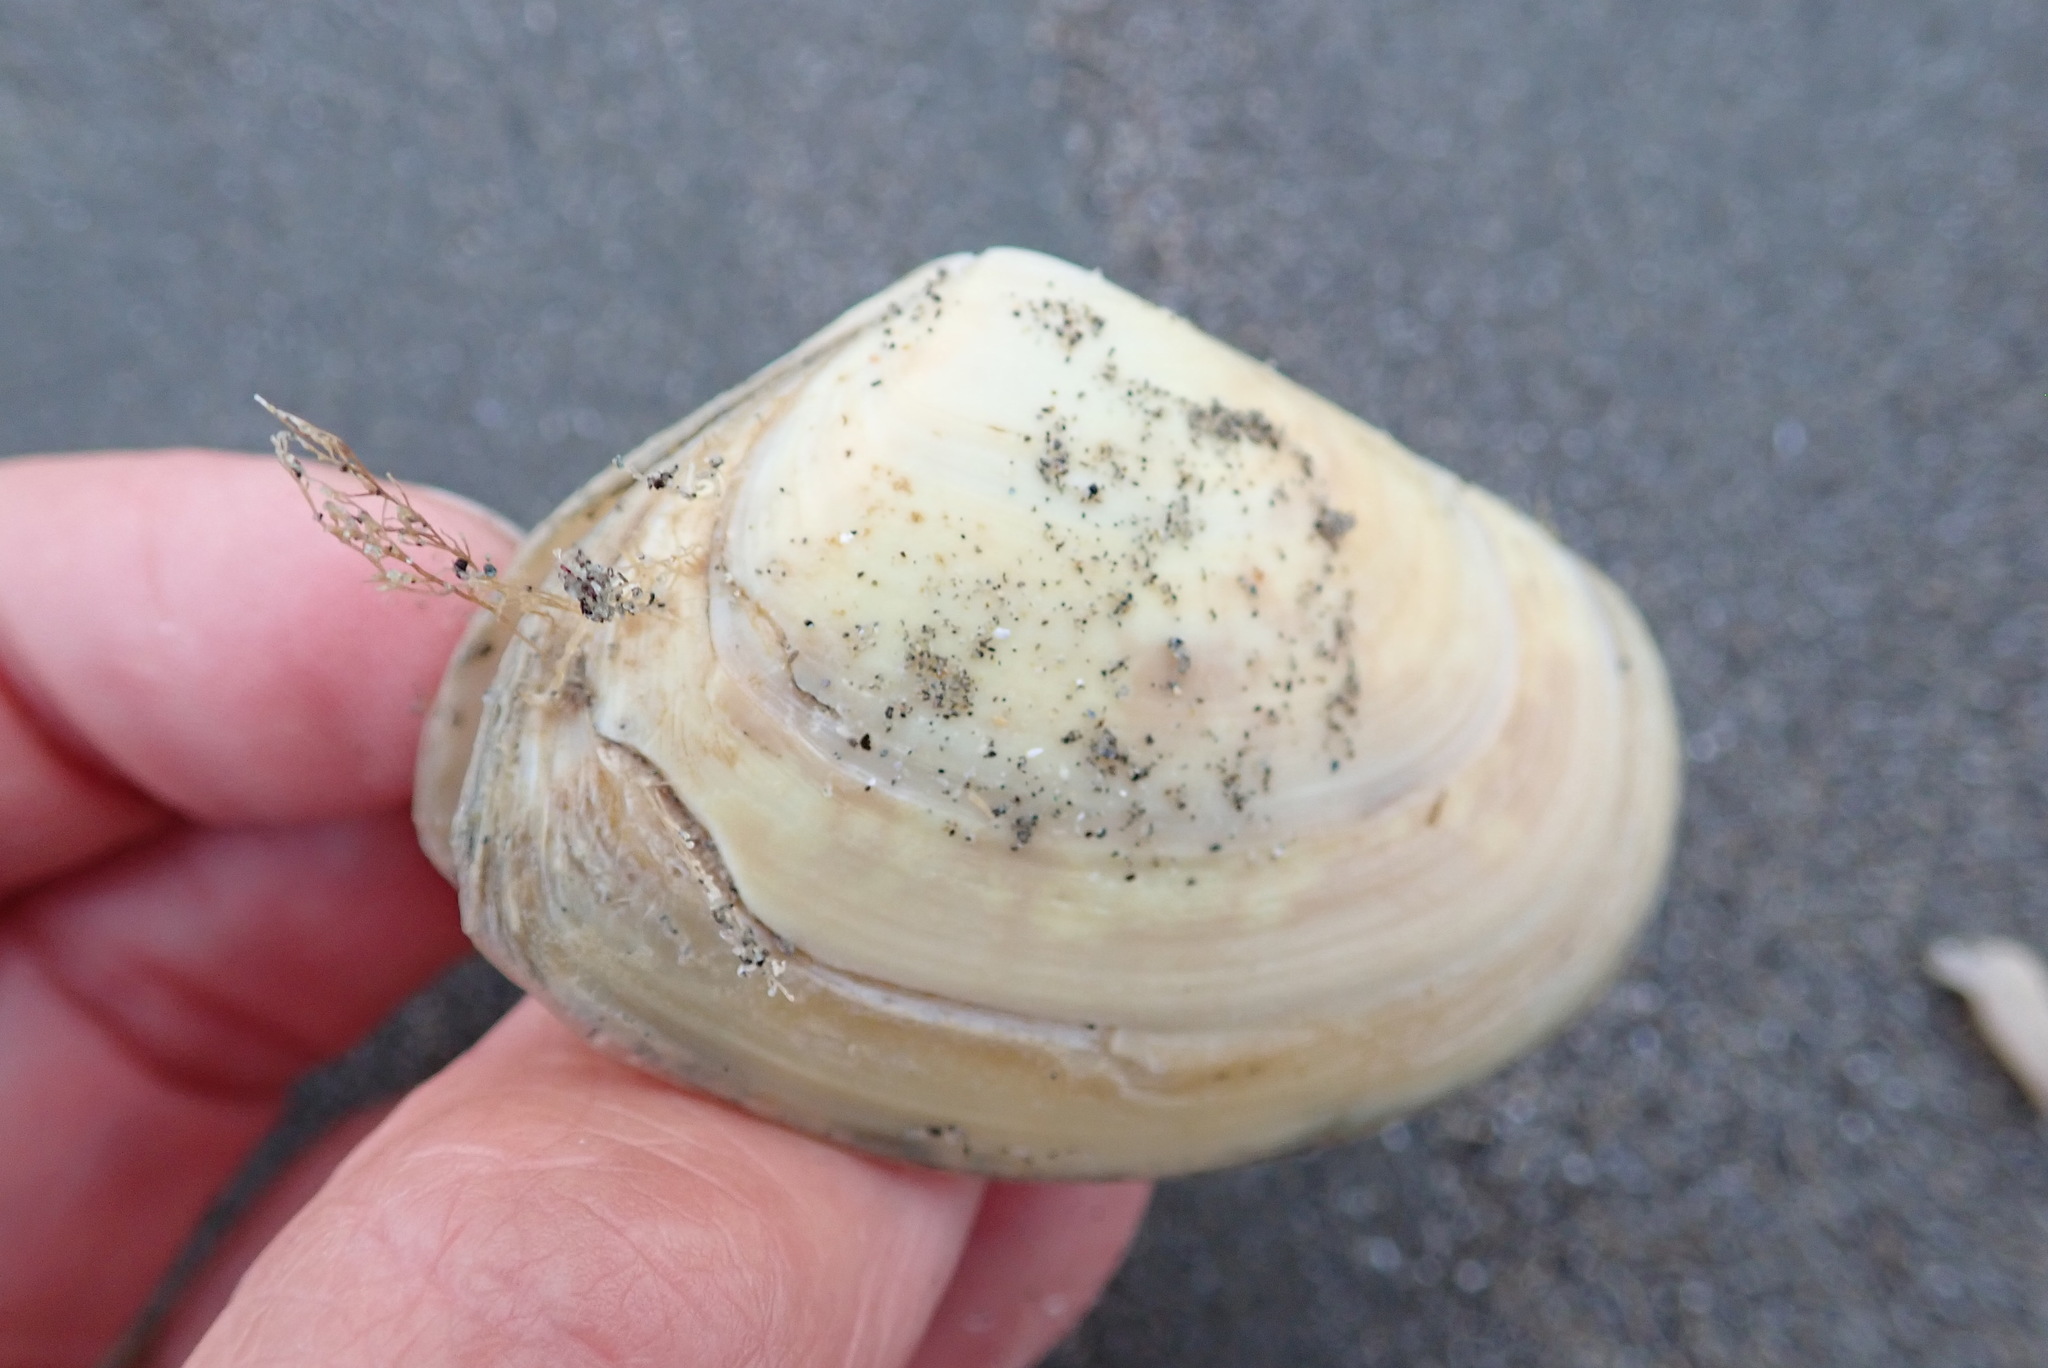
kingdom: Animalia
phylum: Mollusca
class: Bivalvia
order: Venerida
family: Mesodesmatidae
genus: Paphies
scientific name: Paphies donacina
